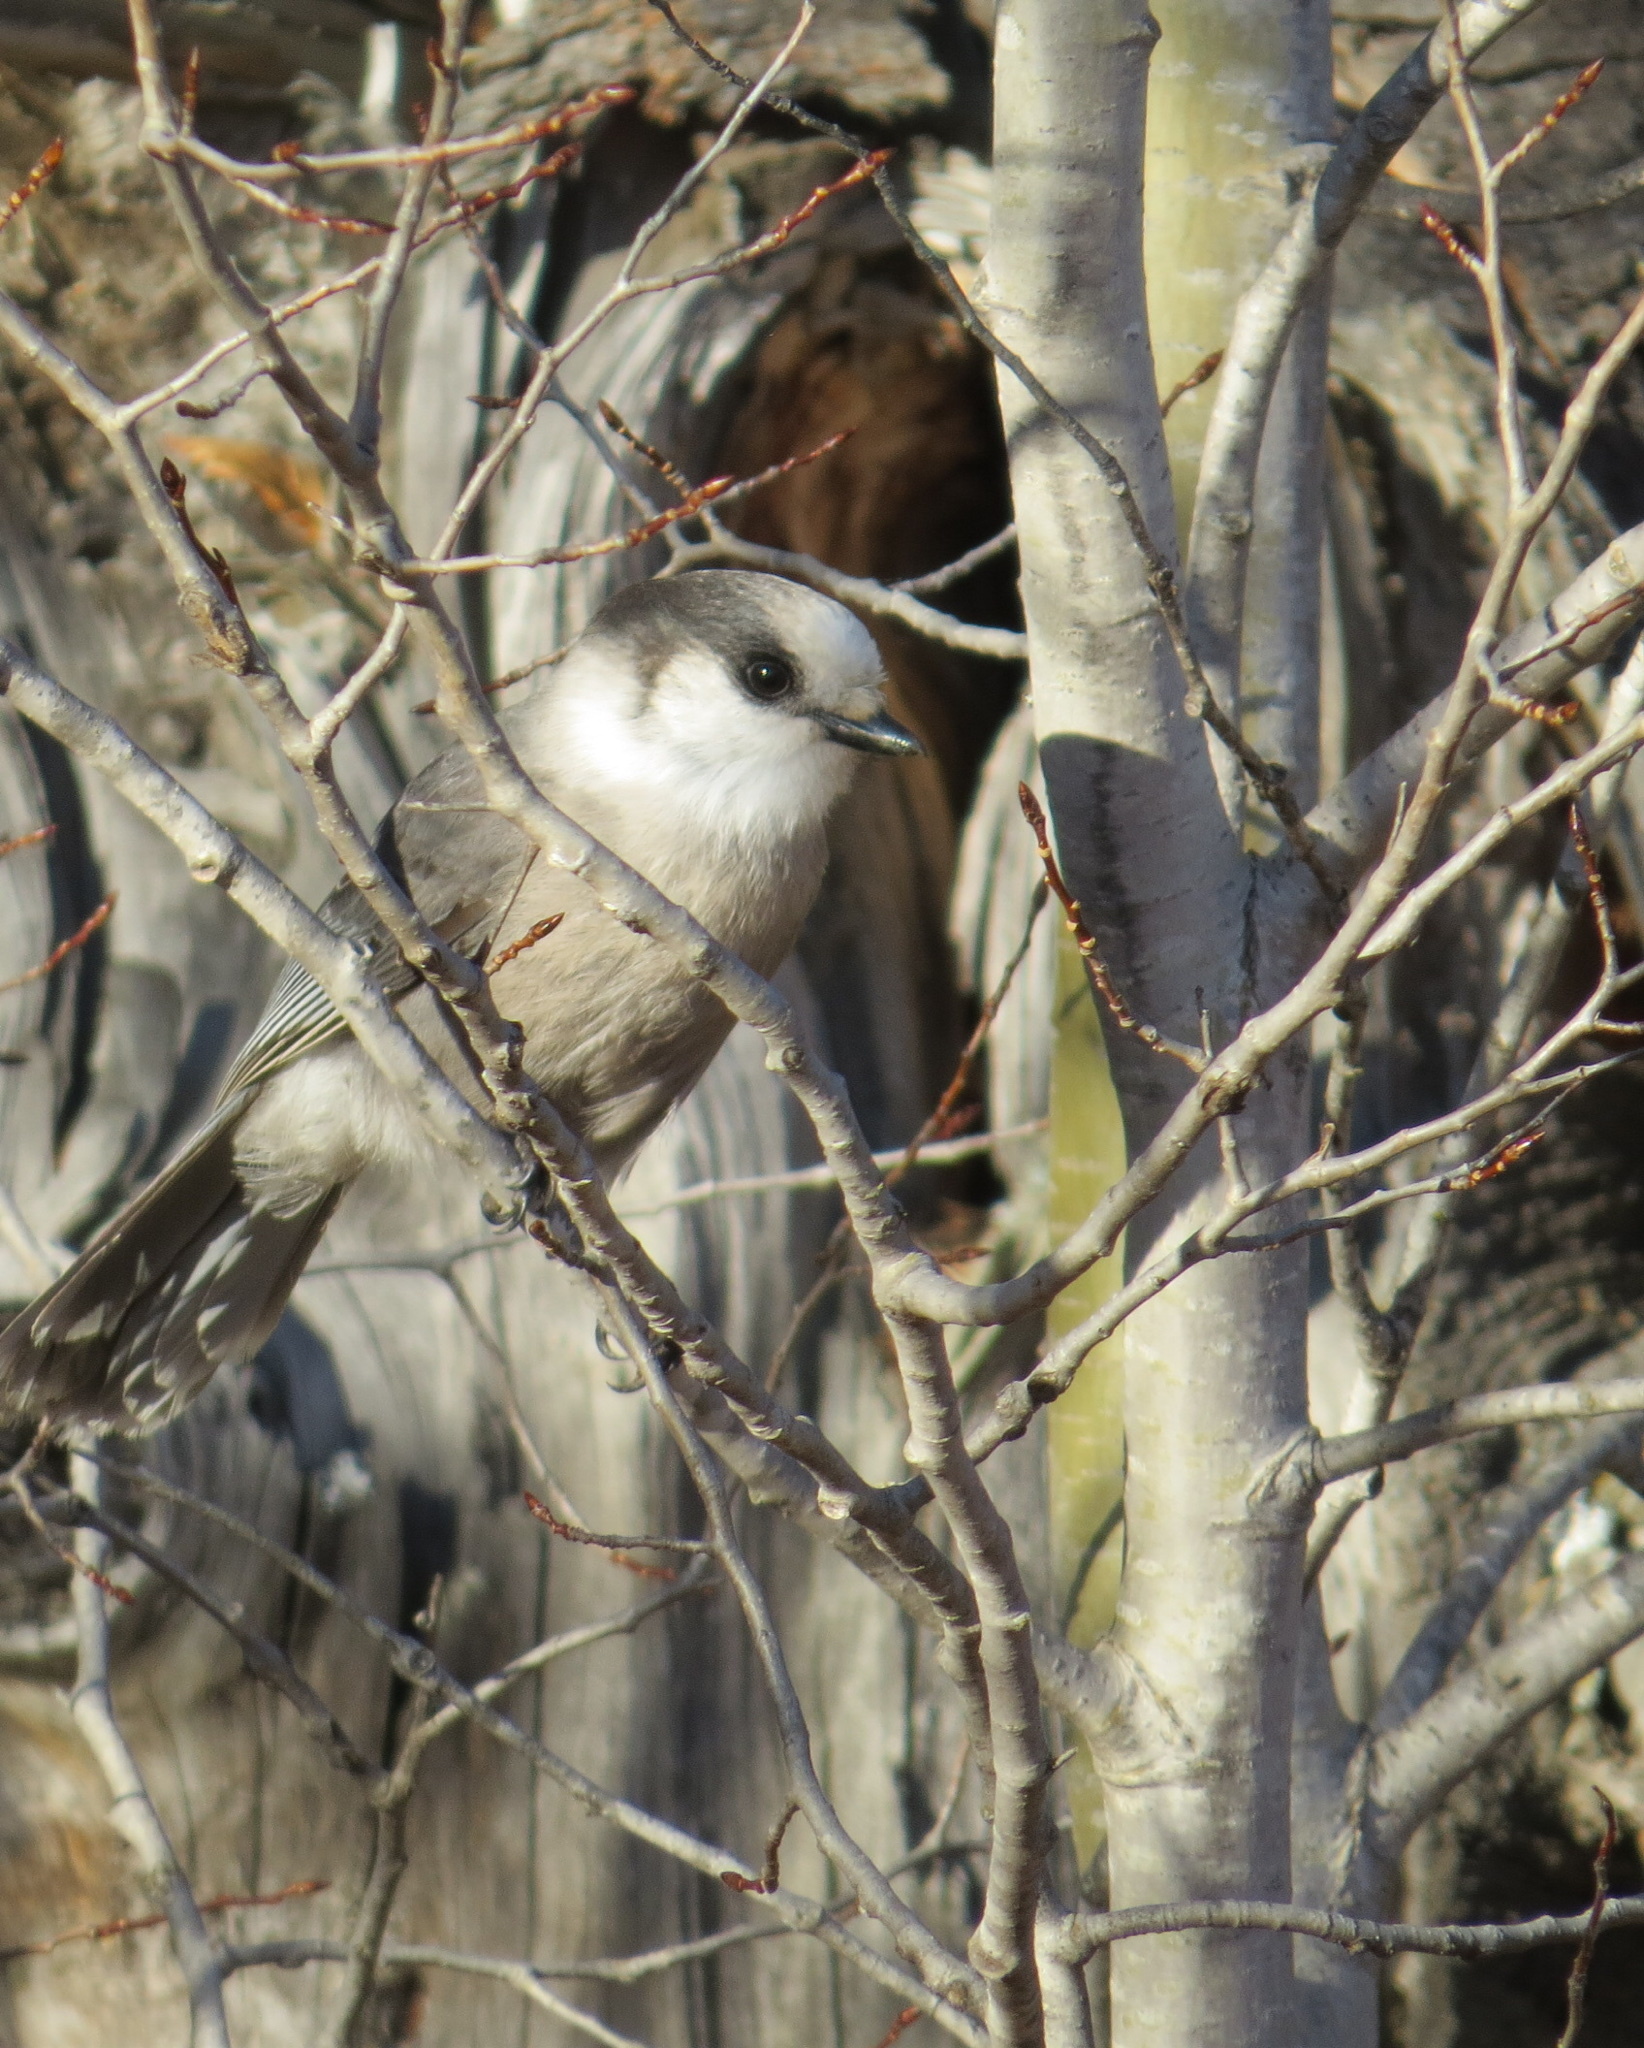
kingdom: Animalia
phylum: Chordata
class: Aves
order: Passeriformes
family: Corvidae
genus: Perisoreus
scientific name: Perisoreus canadensis
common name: Gray jay
